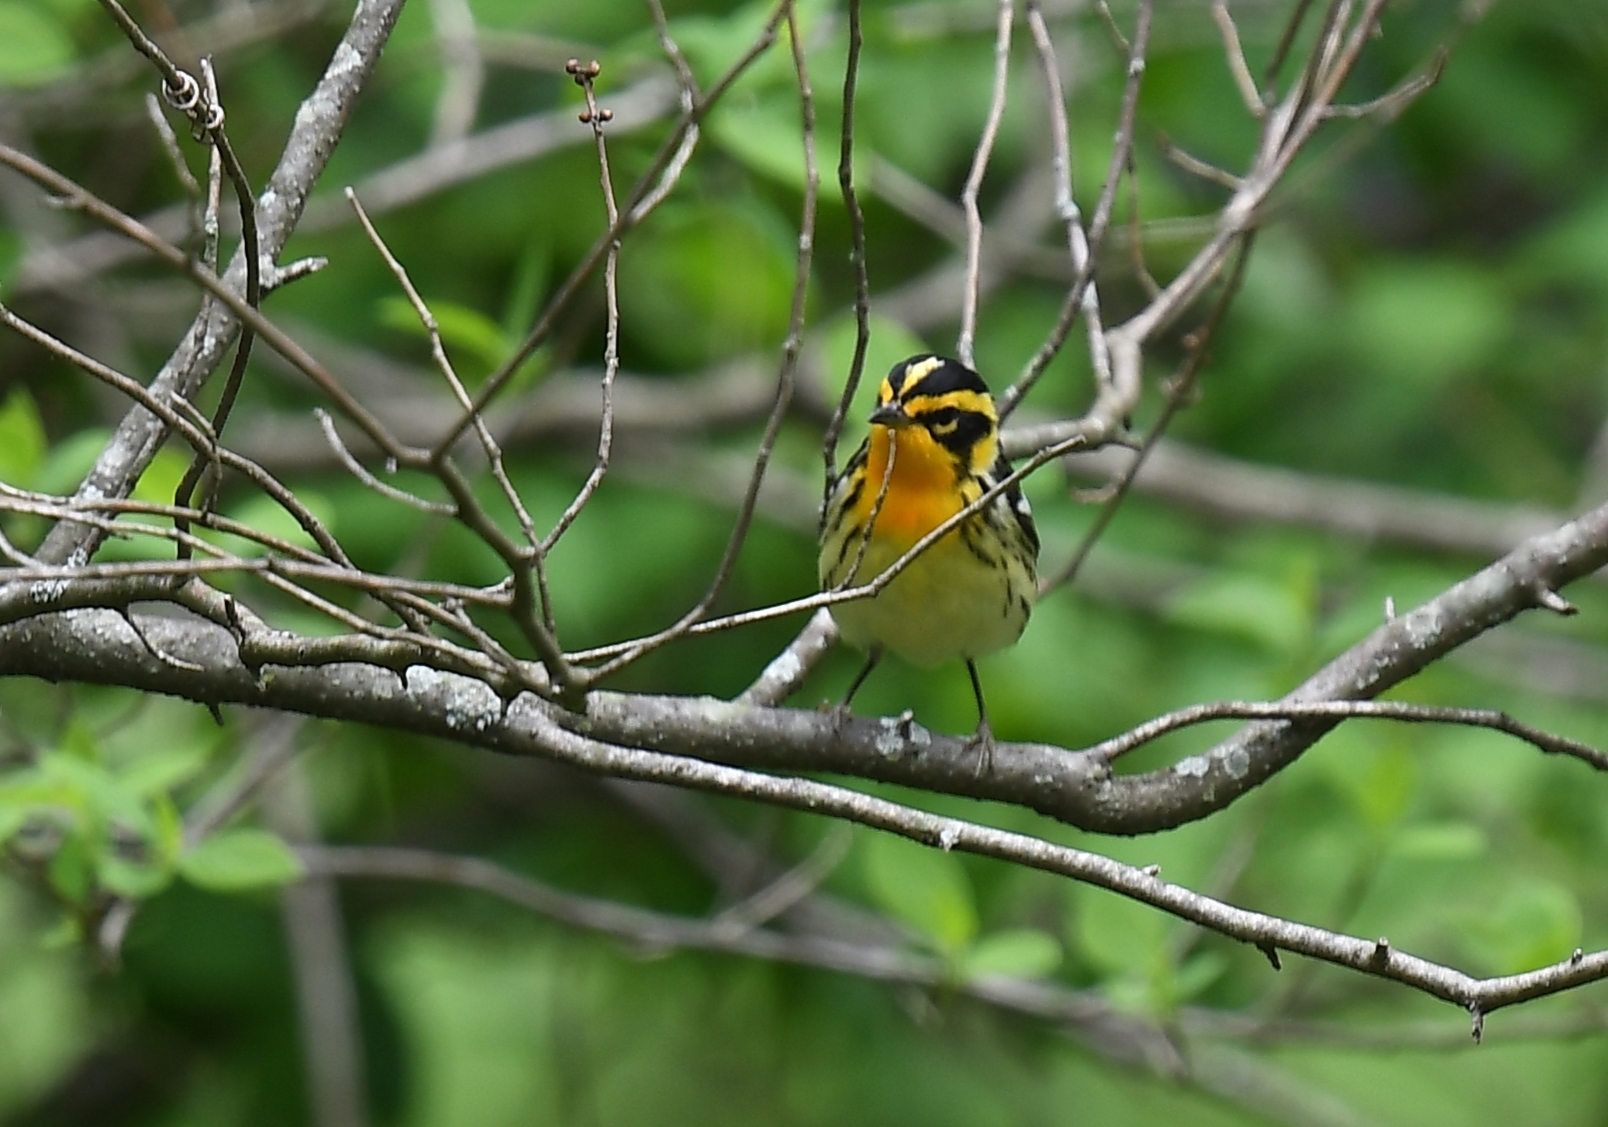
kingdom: Animalia
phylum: Chordata
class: Aves
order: Passeriformes
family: Parulidae
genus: Setophaga
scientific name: Setophaga fusca
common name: Blackburnian warbler
